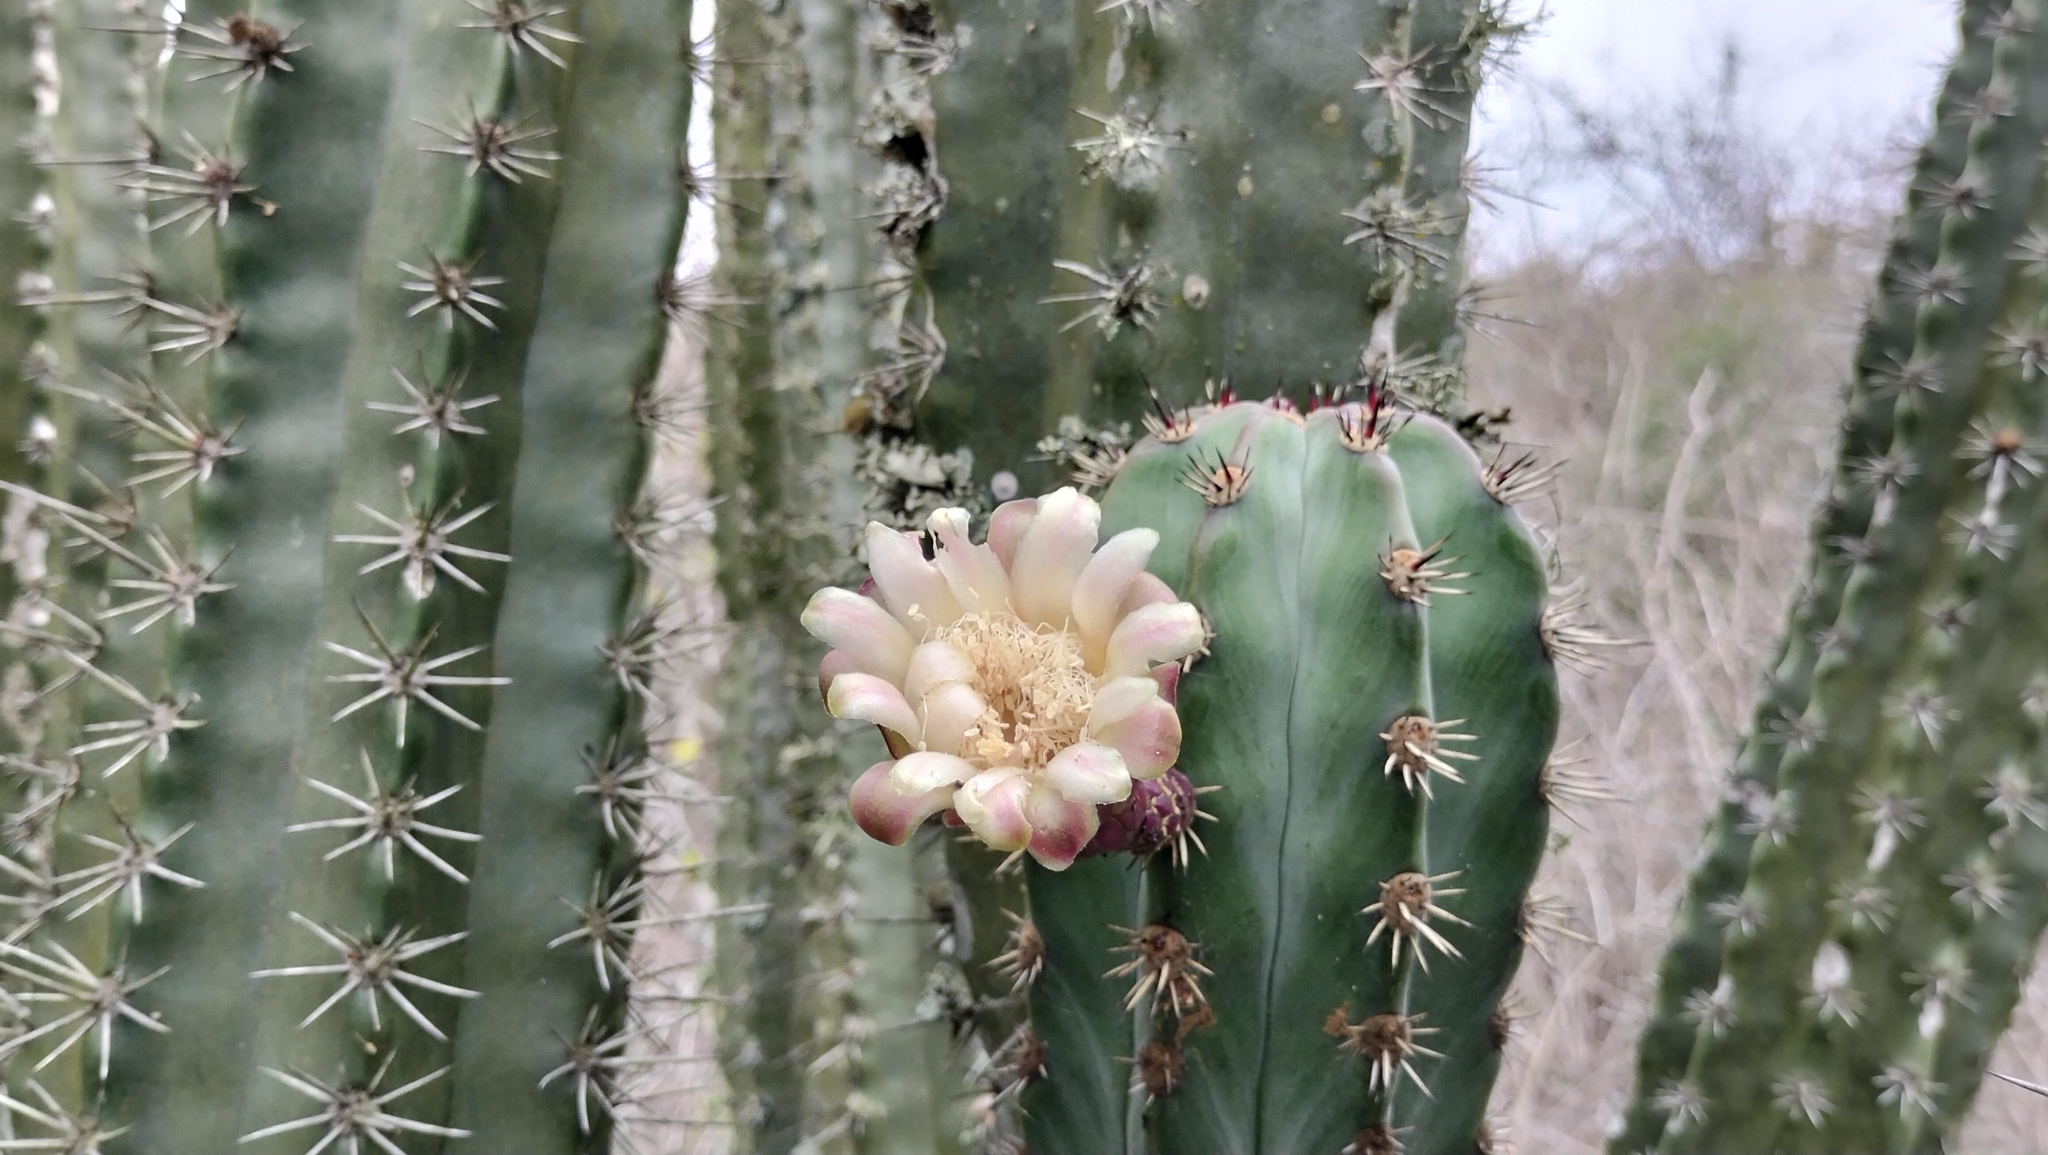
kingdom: Plantae
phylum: Tracheophyta
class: Magnoliopsida
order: Caryophyllales
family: Cactaceae
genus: Stenocereus
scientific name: Stenocereus huastecorum
